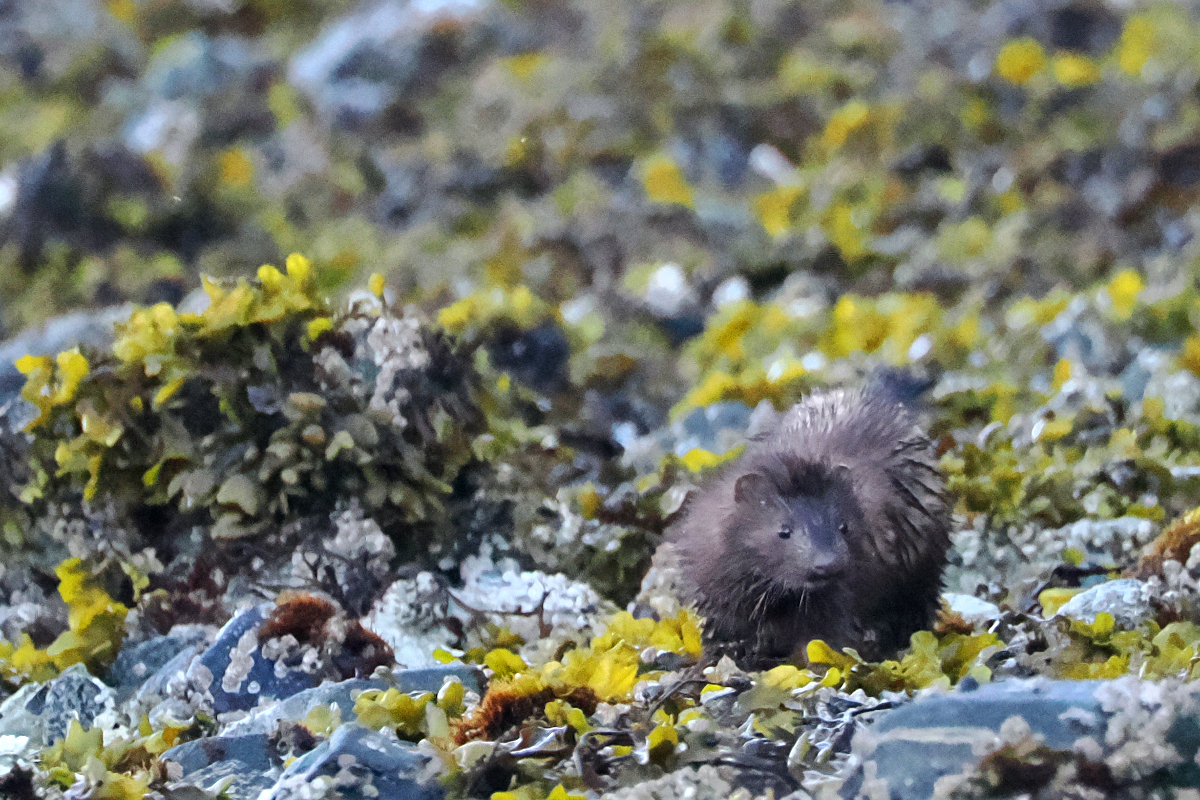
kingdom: Animalia
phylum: Chordata
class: Mammalia
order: Carnivora
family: Mustelidae
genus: Mustela
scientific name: Mustela
